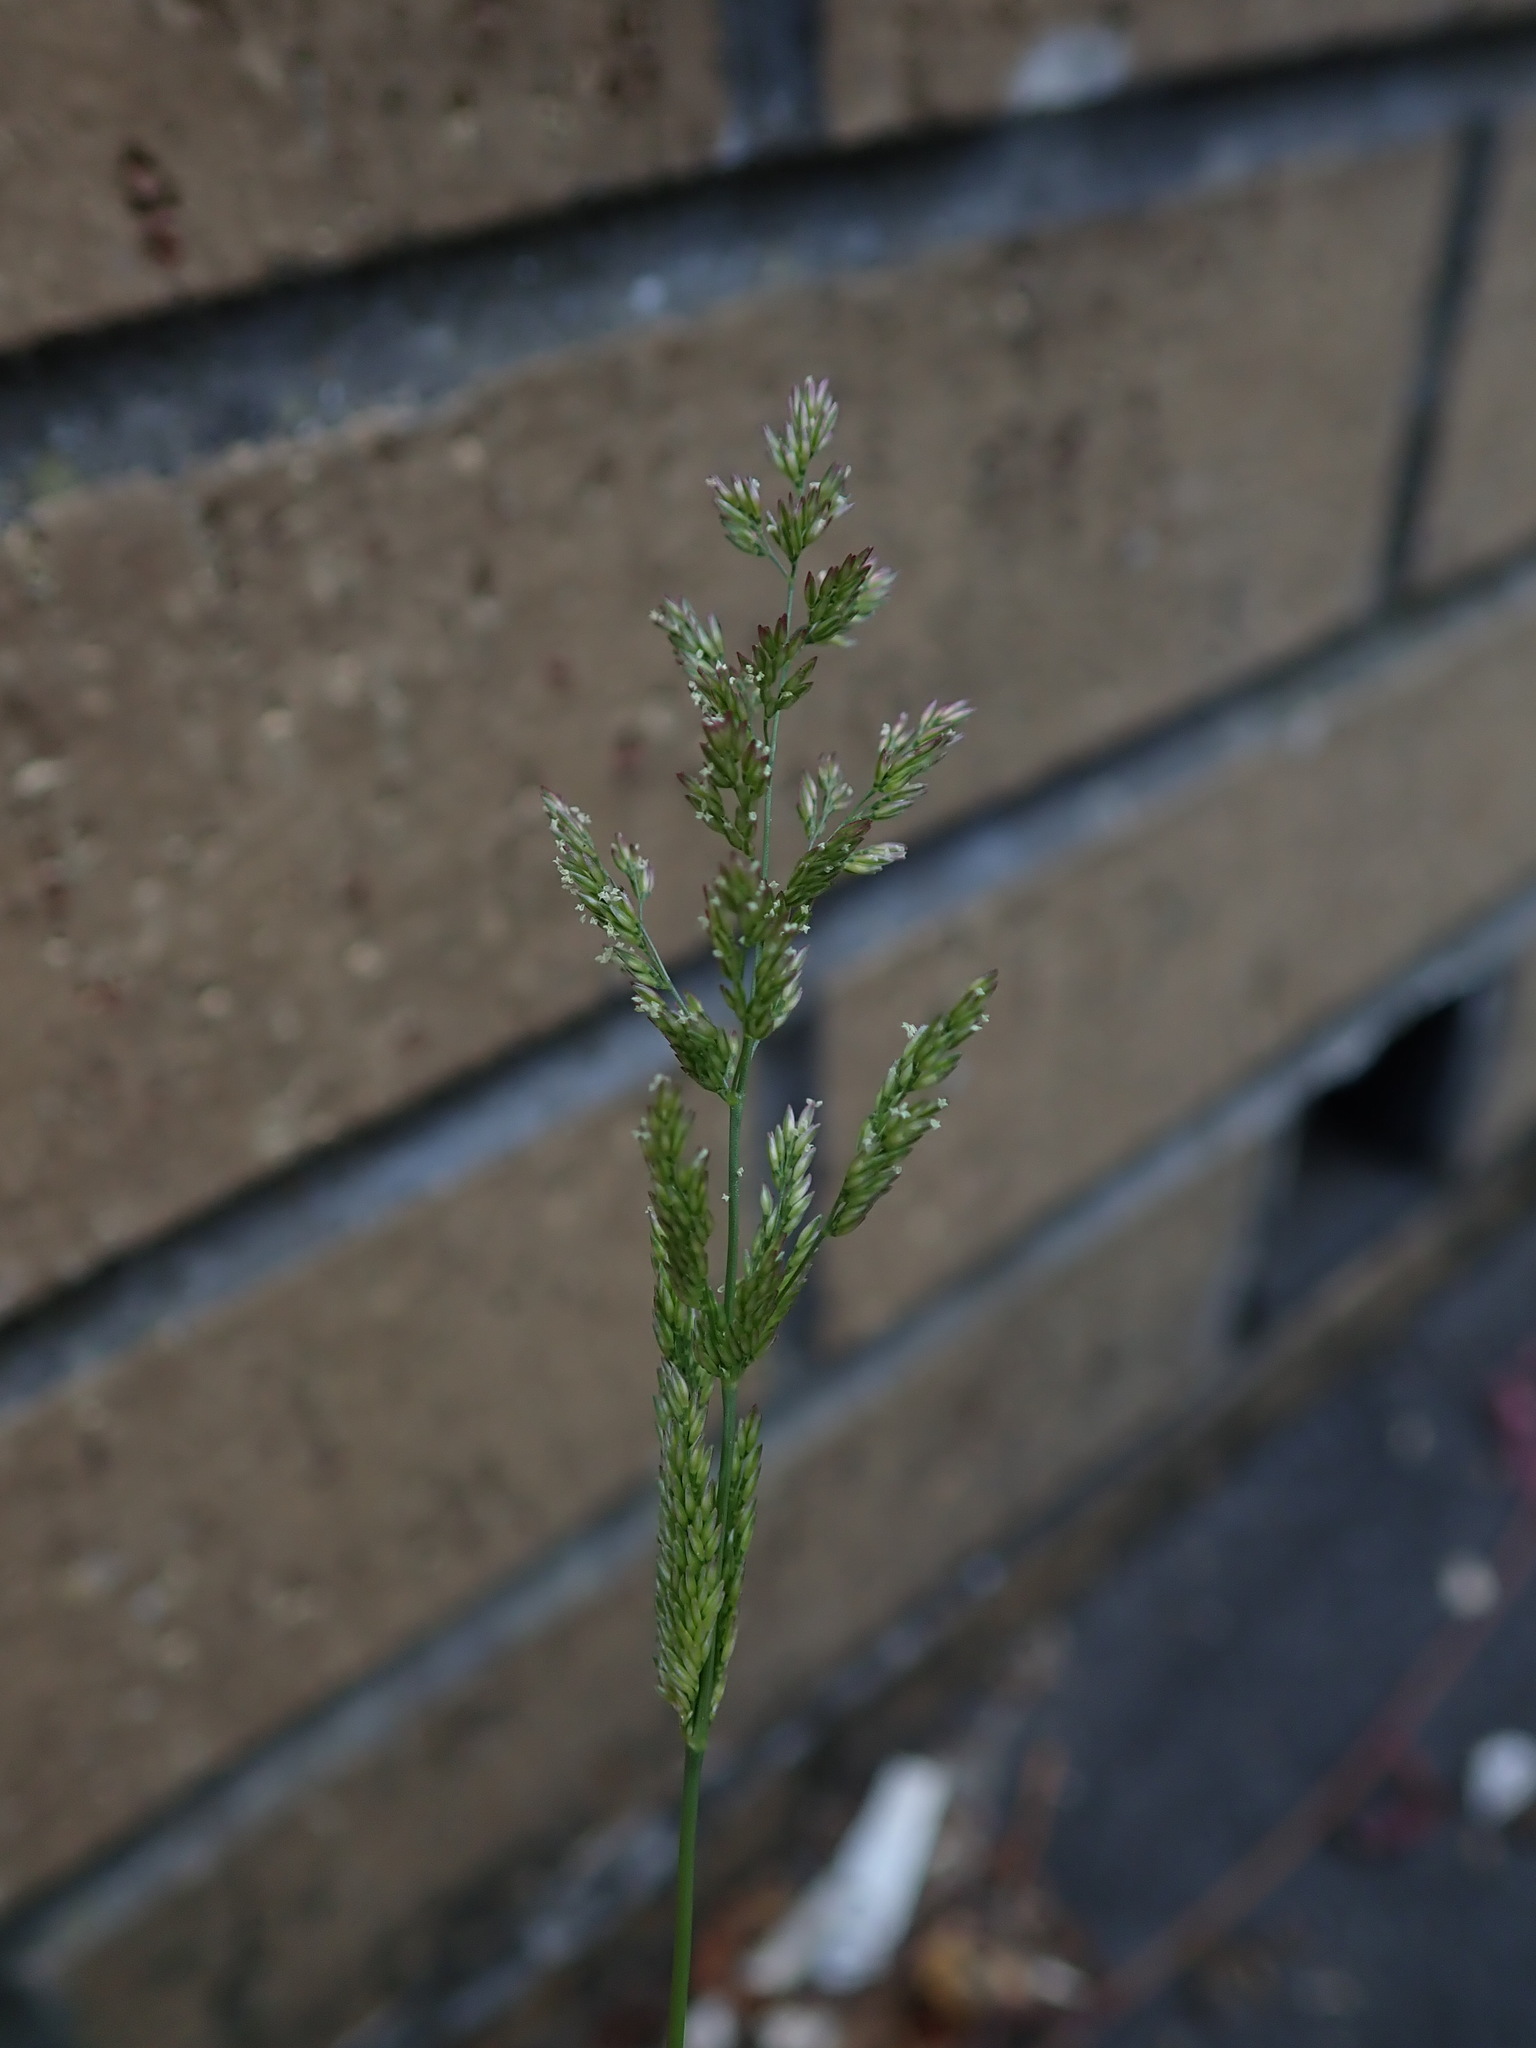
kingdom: Plantae
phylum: Tracheophyta
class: Liliopsida
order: Poales
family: Poaceae
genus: Polypogon
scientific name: Polypogon viridis
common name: Water bent
